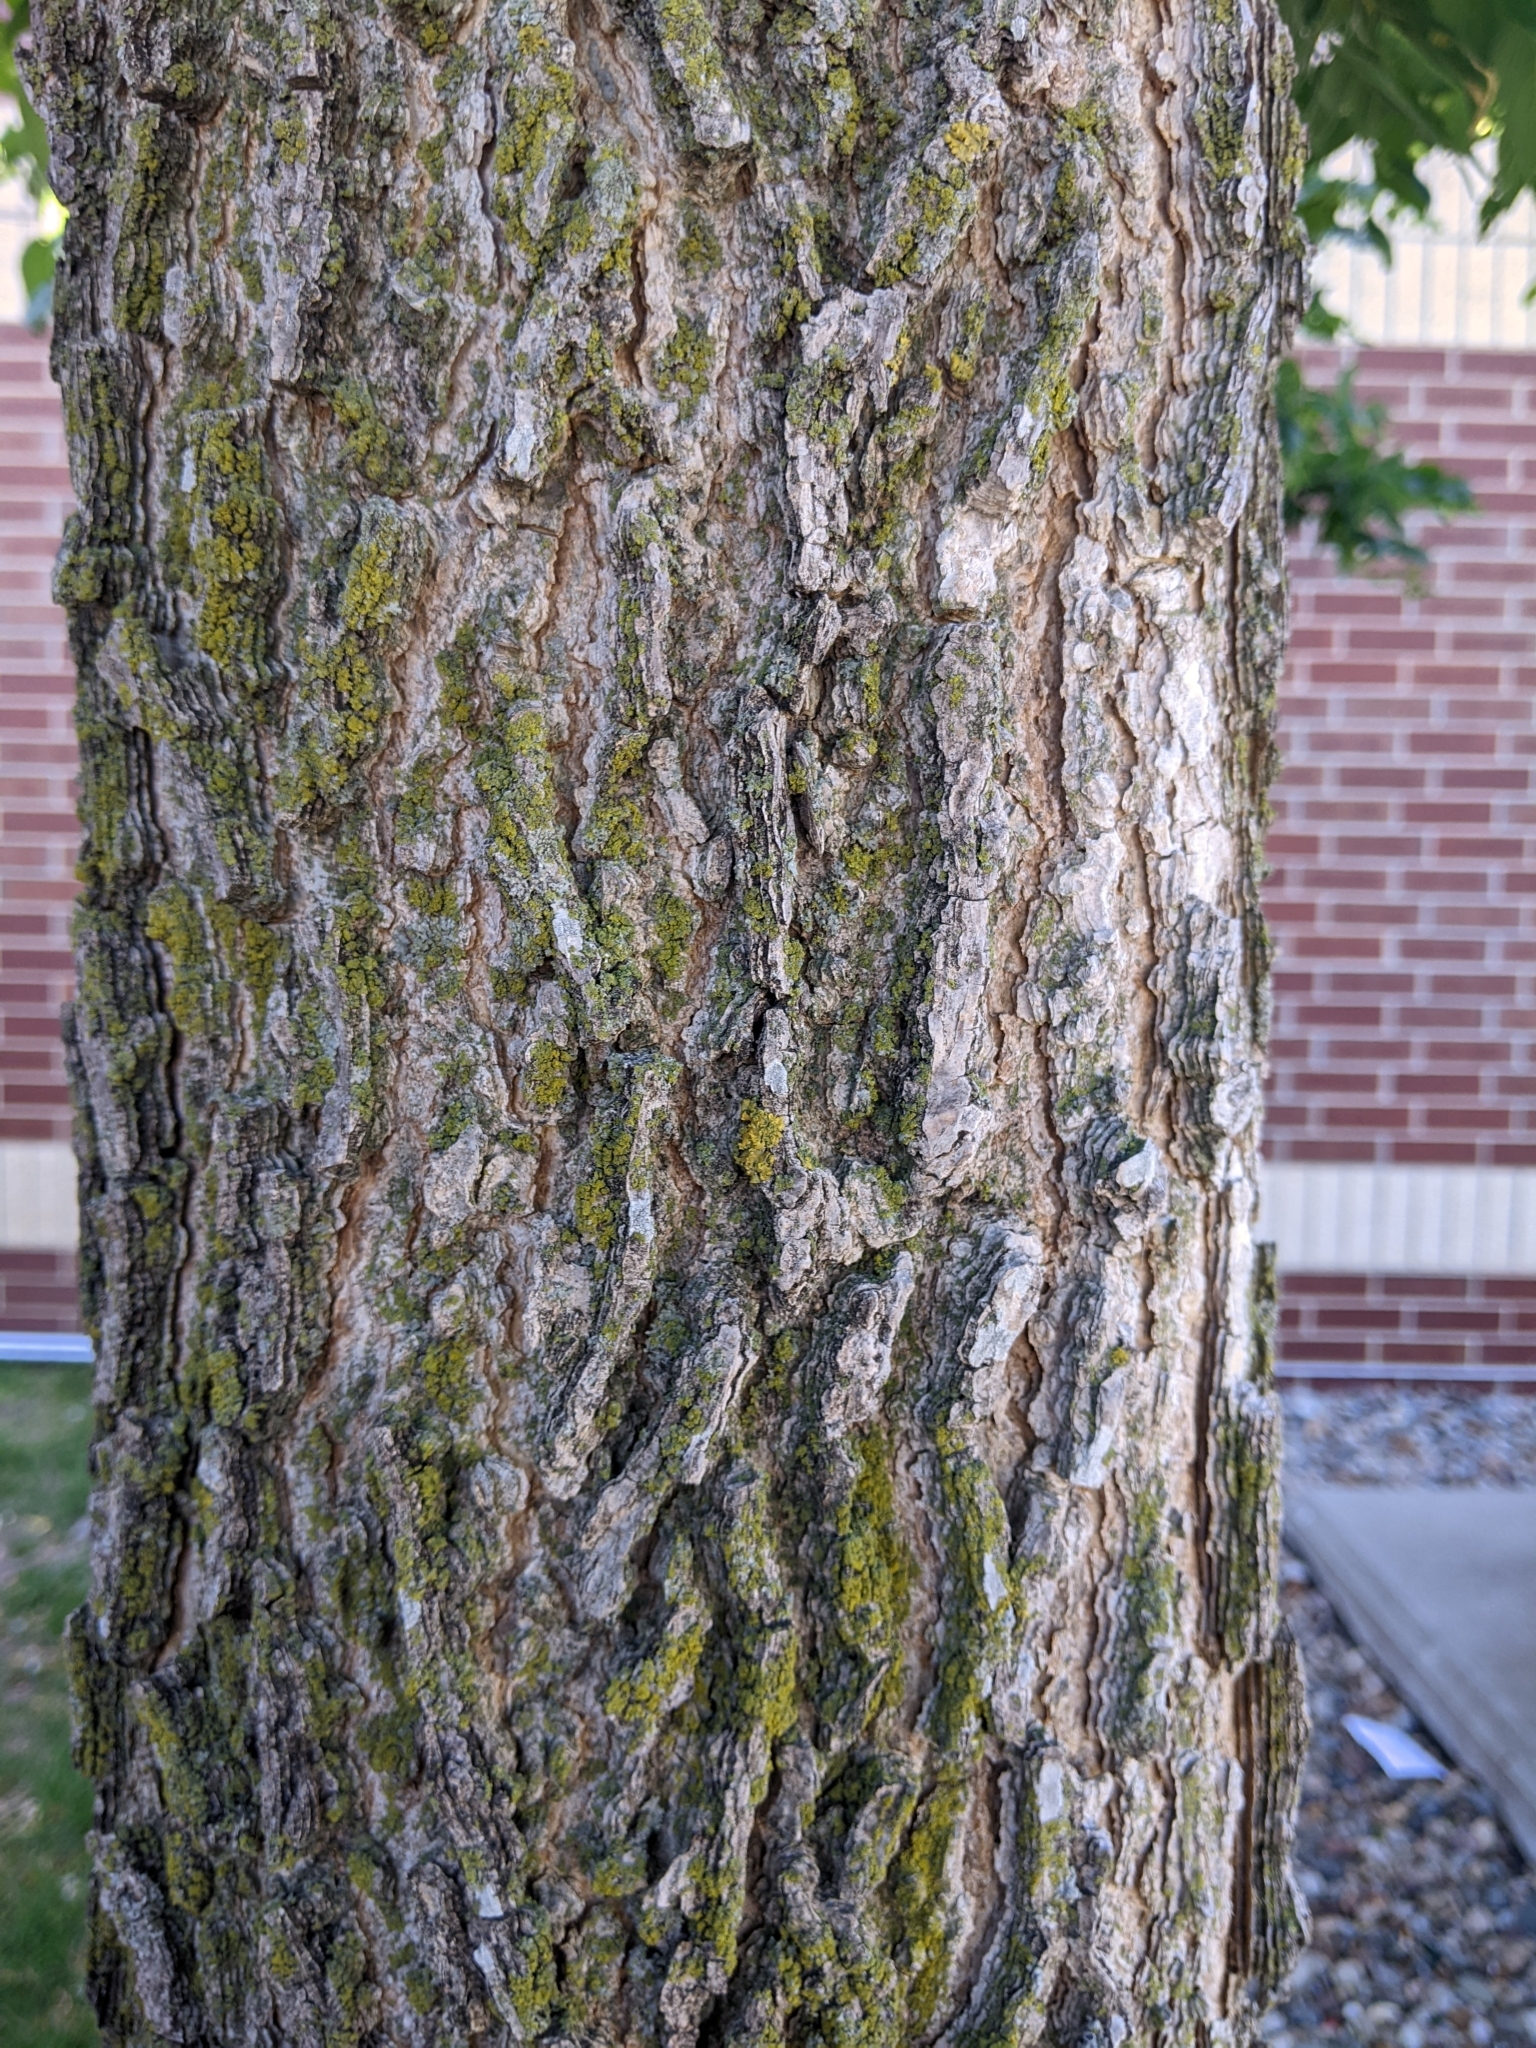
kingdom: Fungi
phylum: Ascomycota
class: Lecanoromycetes
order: Teloschistales
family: Teloschistaceae
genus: Oxneria
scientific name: Oxneria fallax
